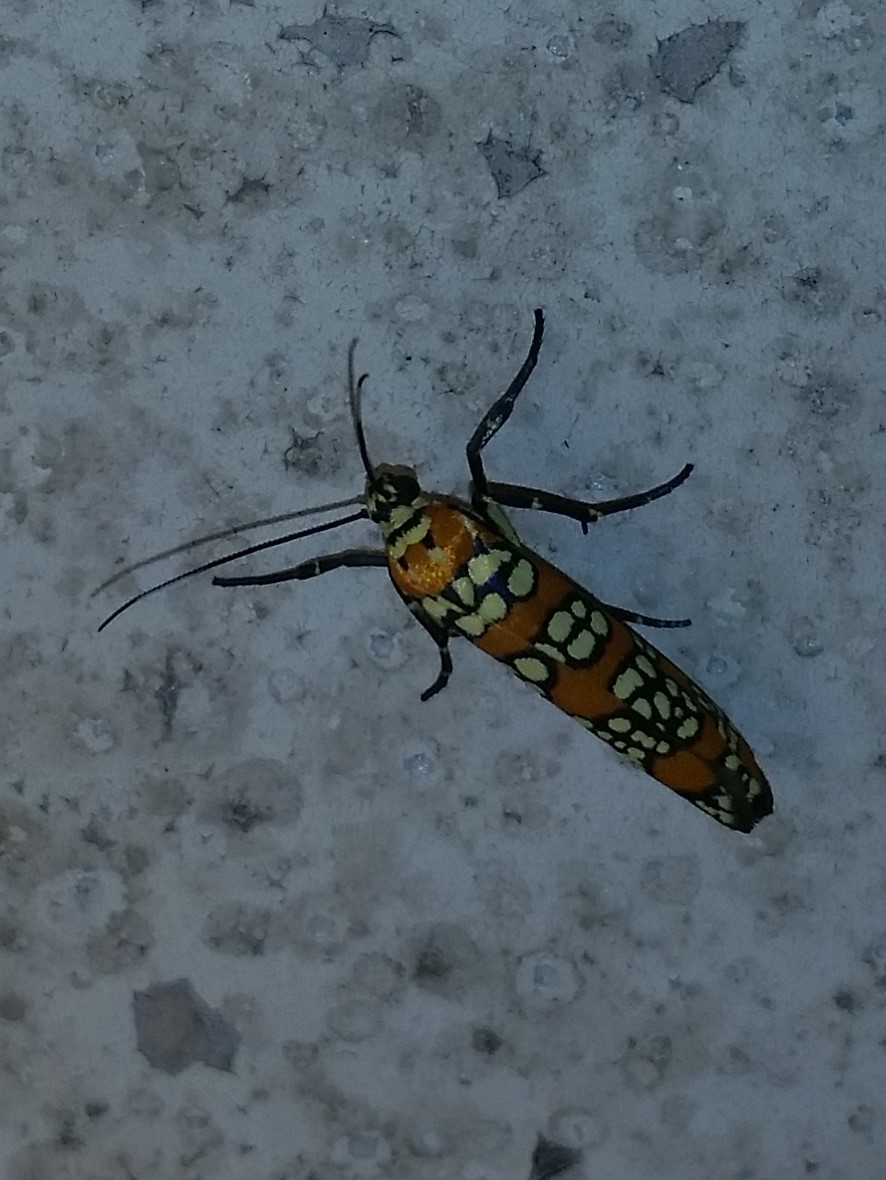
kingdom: Animalia
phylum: Arthropoda
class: Insecta
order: Lepidoptera
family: Attevidae
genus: Atteva
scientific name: Atteva punctella
